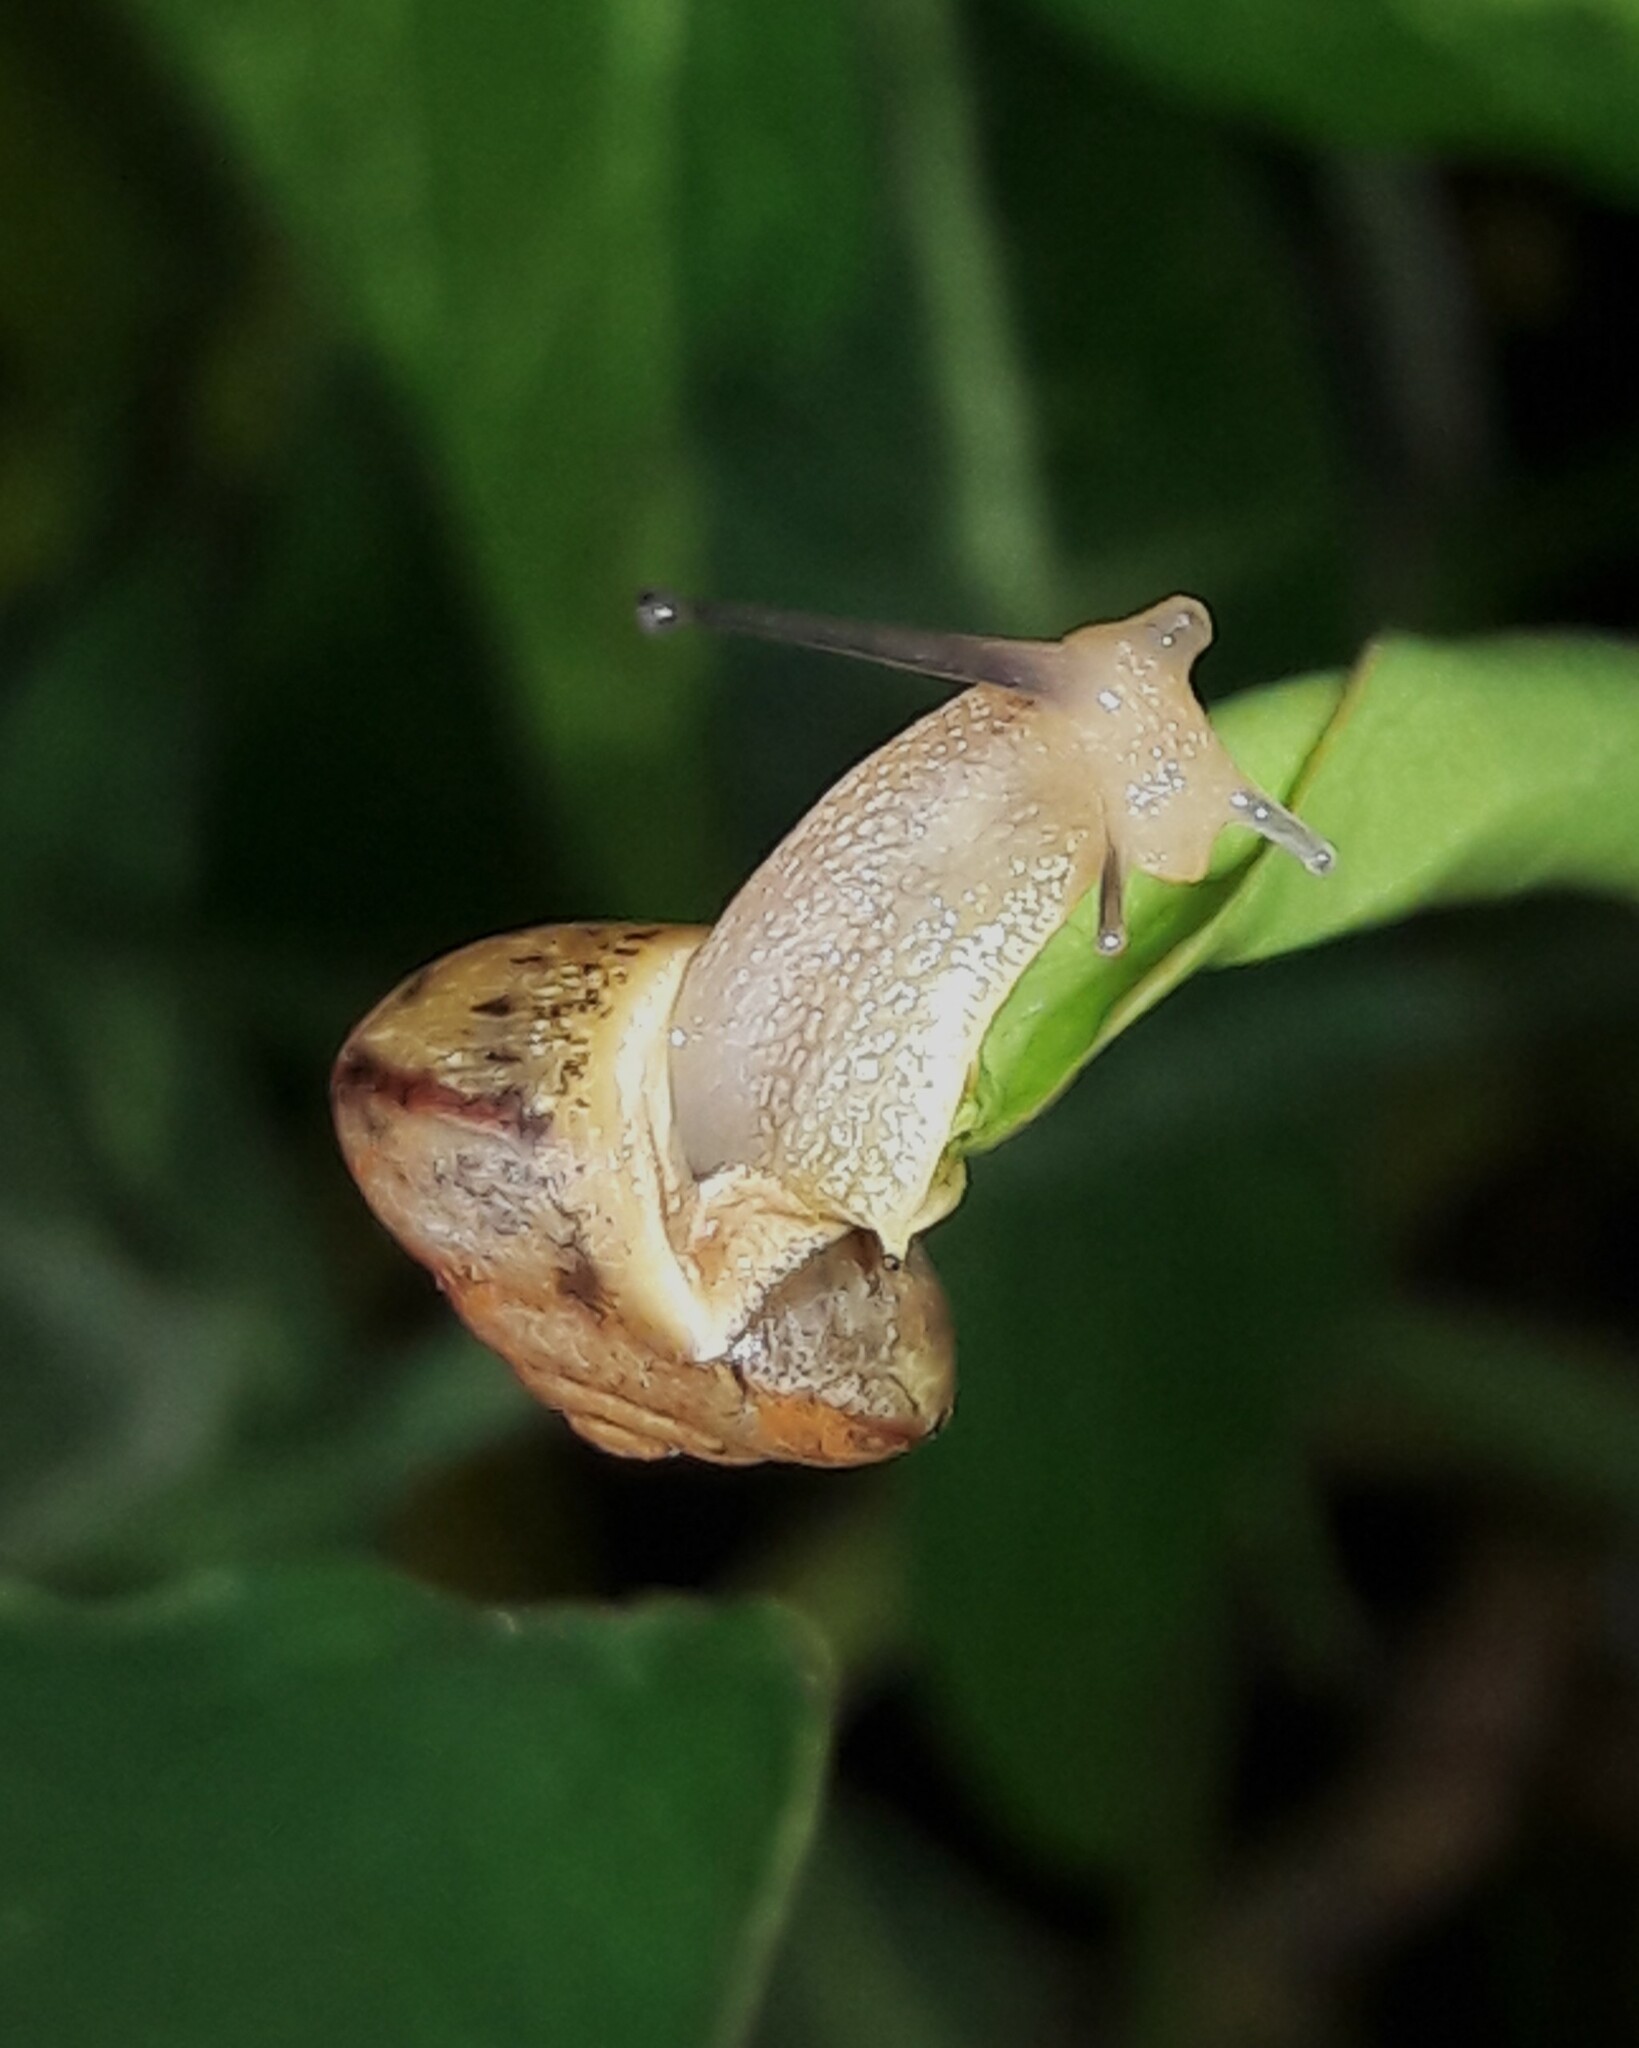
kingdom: Animalia
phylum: Mollusca
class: Gastropoda
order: Stylommatophora
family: Camaenidae
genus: Bradybaena
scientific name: Bradybaena similaris
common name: Asian trampsnail
